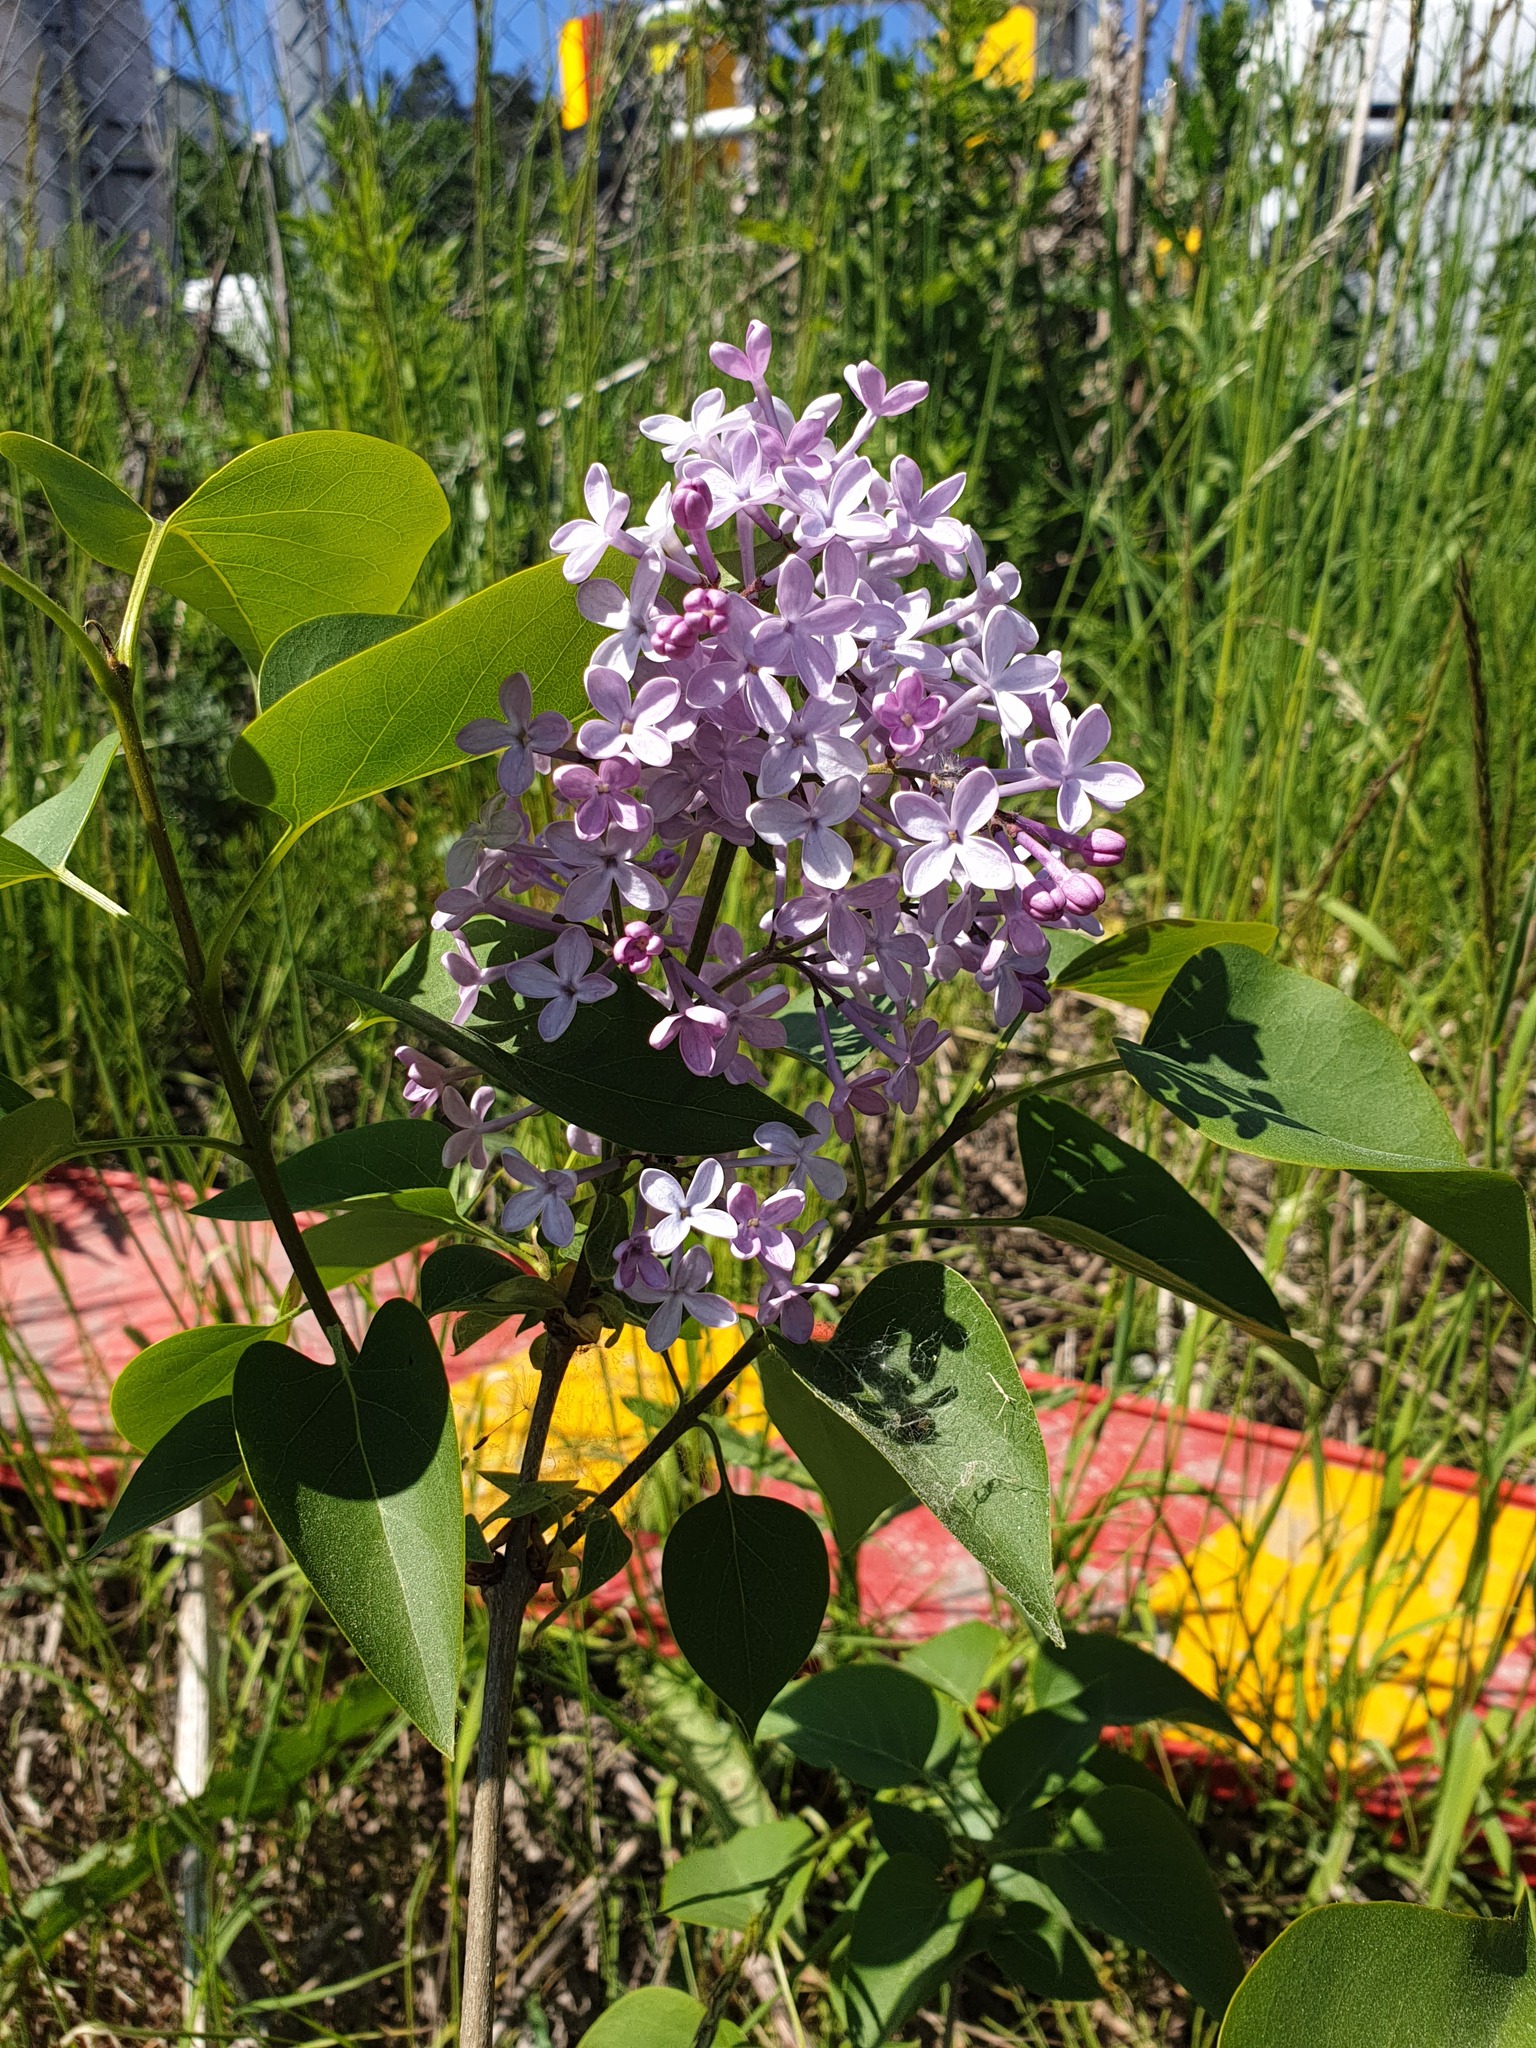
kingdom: Plantae
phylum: Tracheophyta
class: Magnoliopsida
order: Lamiales
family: Oleaceae
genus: Syringa
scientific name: Syringa vulgaris
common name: Common lilac
